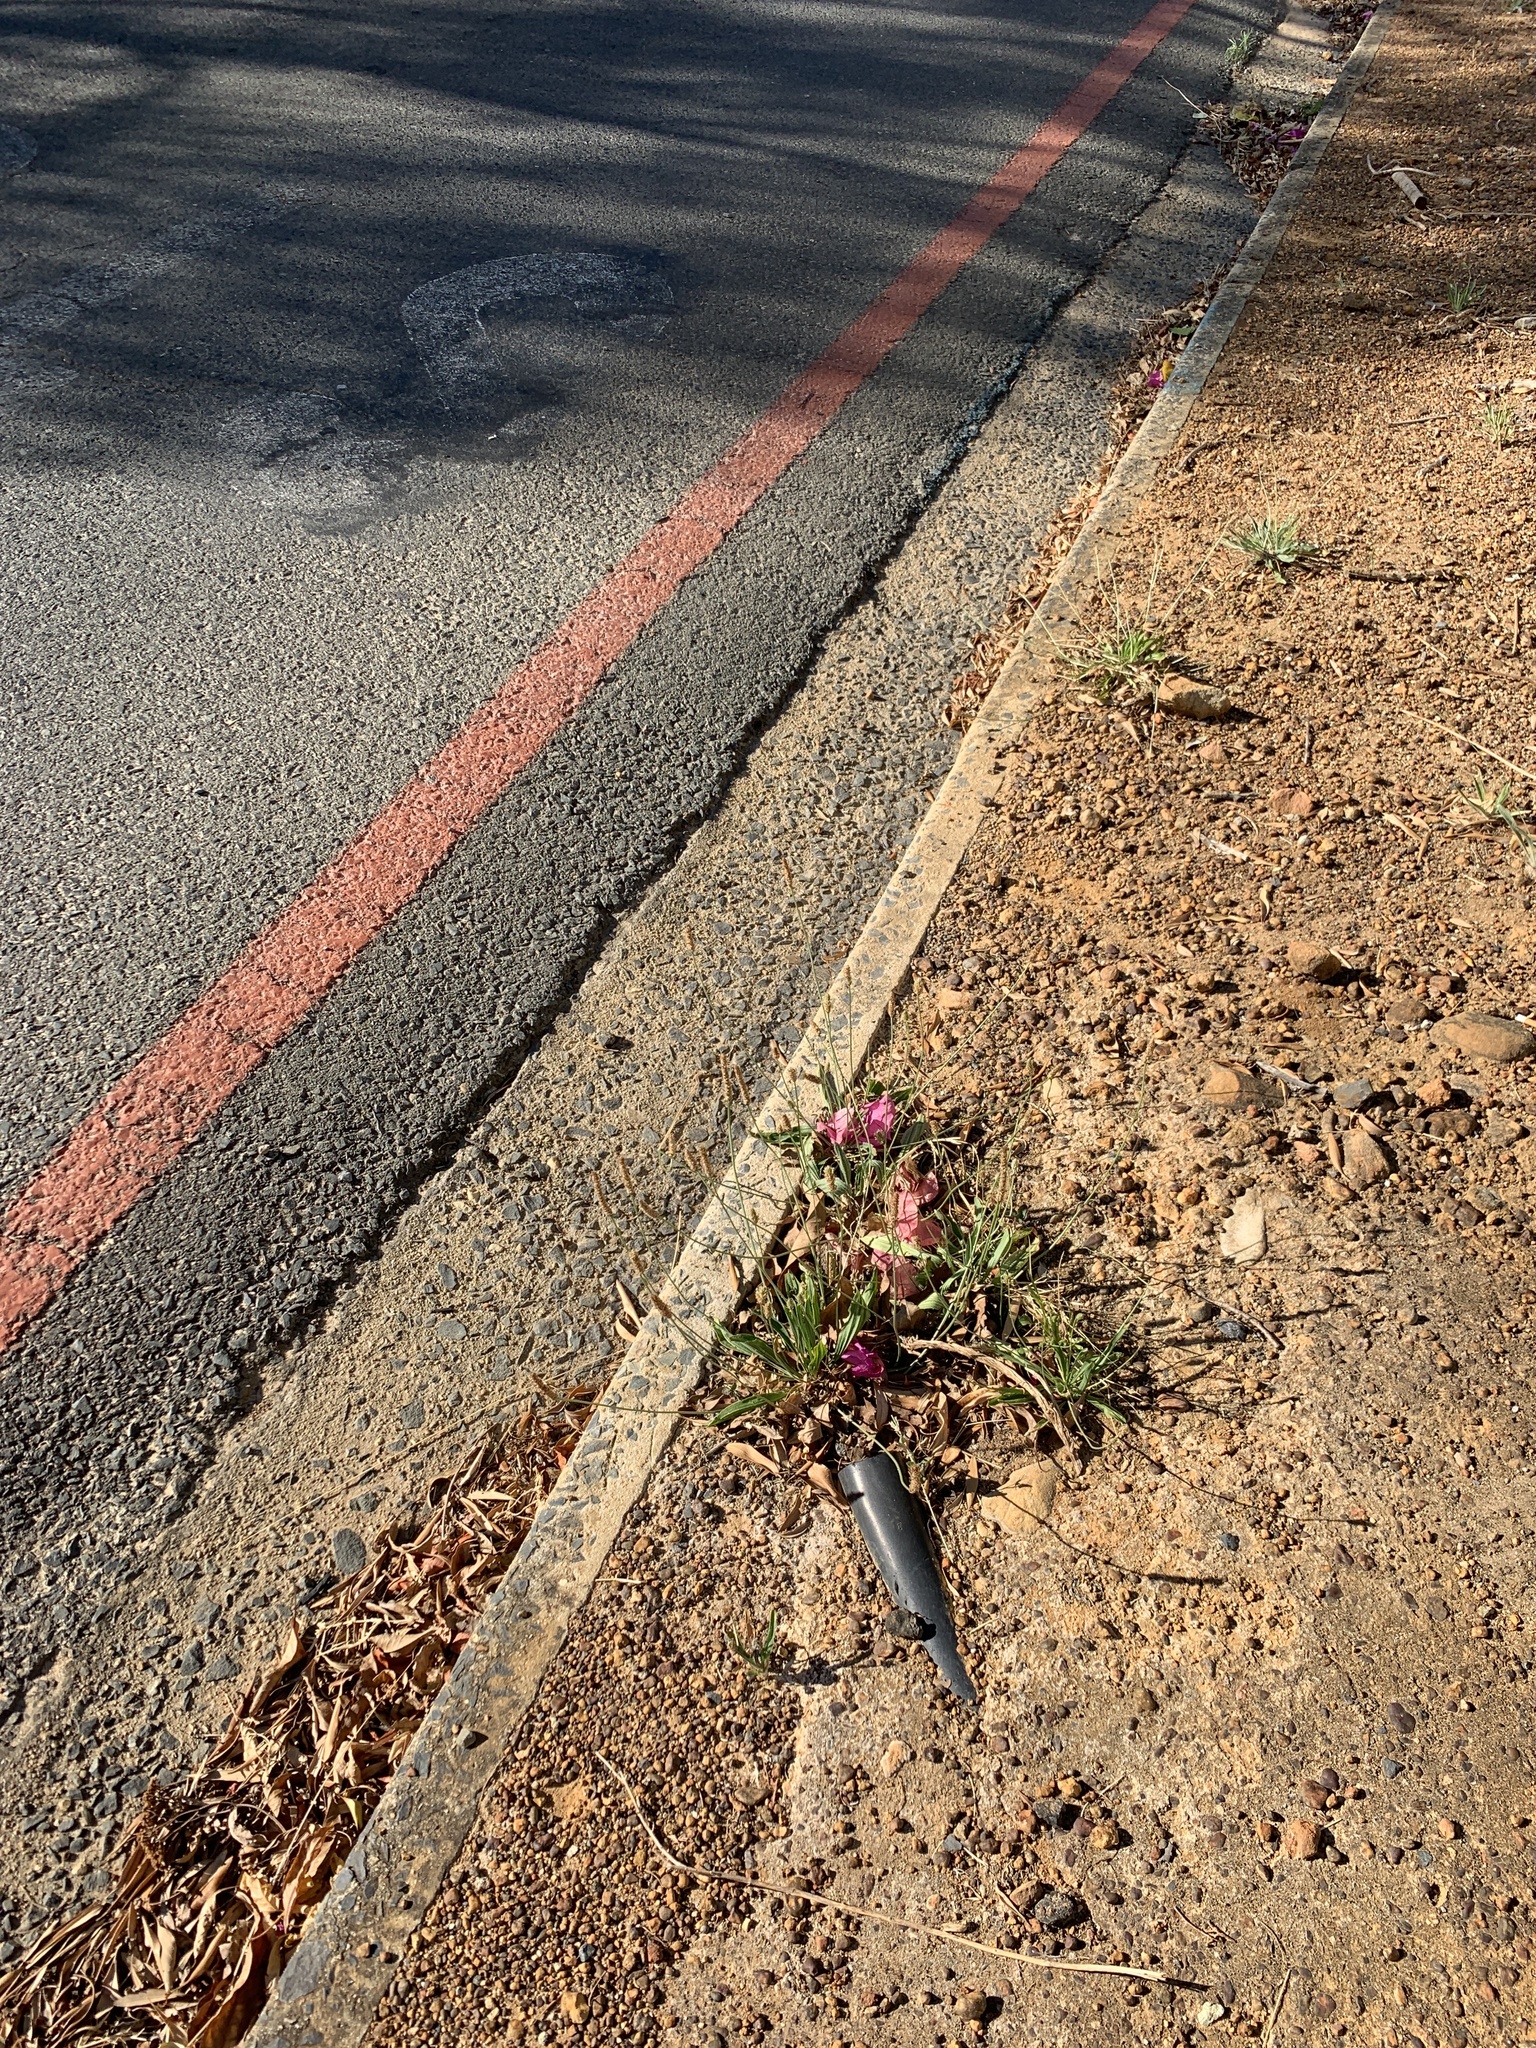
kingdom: Plantae
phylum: Tracheophyta
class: Magnoliopsida
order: Lamiales
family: Plantaginaceae
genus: Plantago
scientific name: Plantago lanceolata
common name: Ribwort plantain
